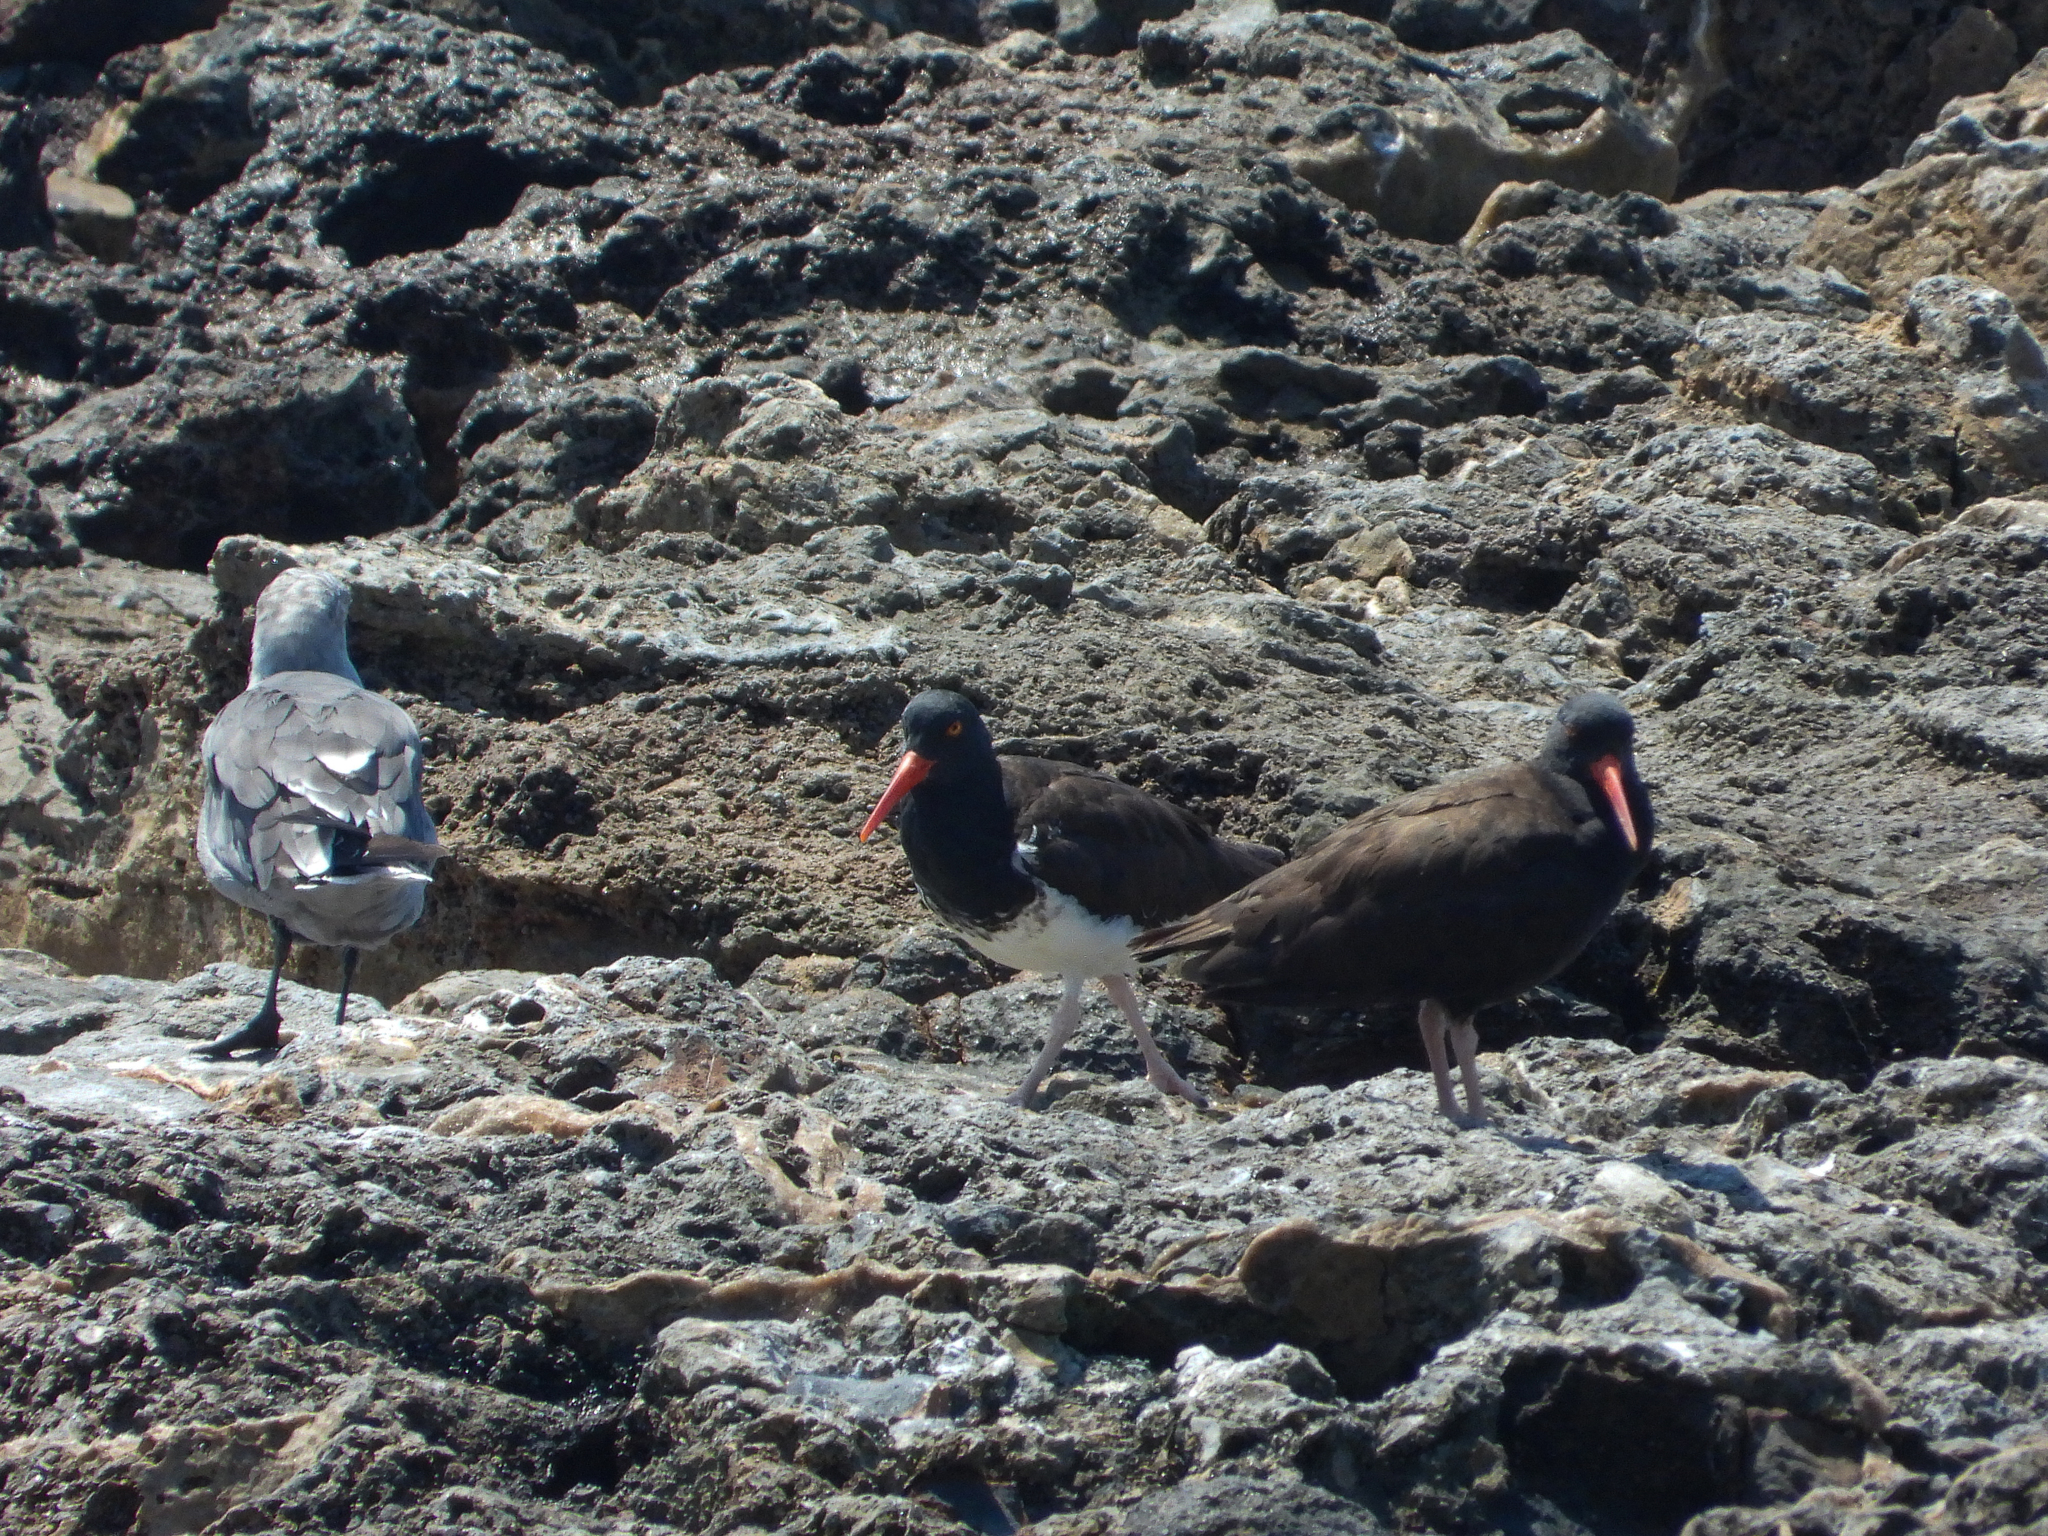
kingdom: Animalia
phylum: Chordata
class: Aves
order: Charadriiformes
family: Haematopodidae
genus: Haematopus
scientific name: Haematopus
